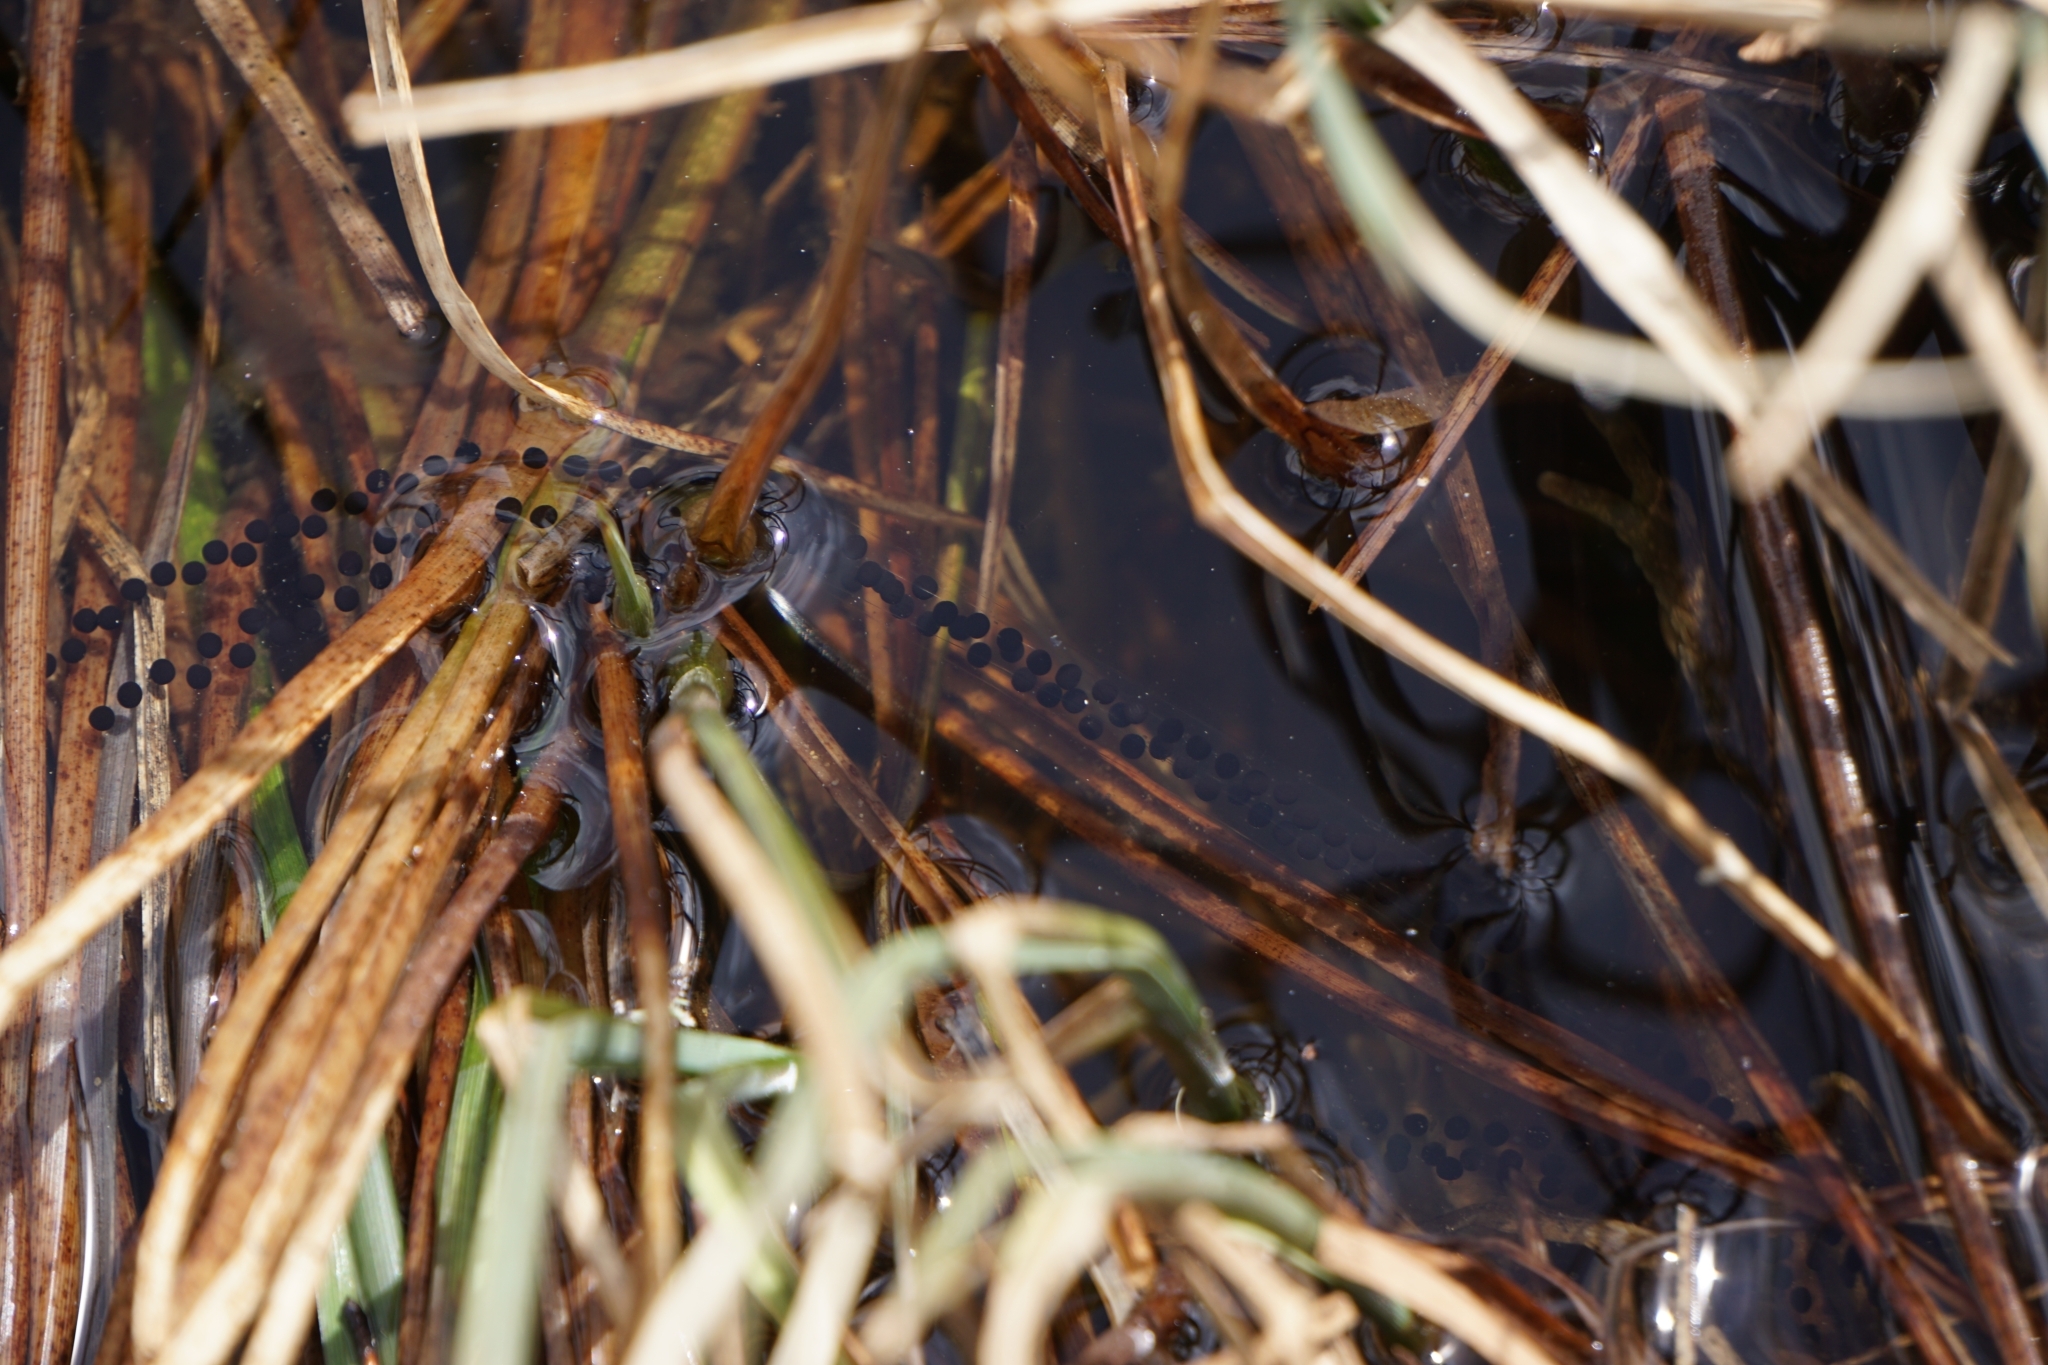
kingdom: Animalia
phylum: Chordata
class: Amphibia
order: Anura
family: Bufonidae
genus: Bufo
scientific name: Bufo bufo
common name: Common toad
